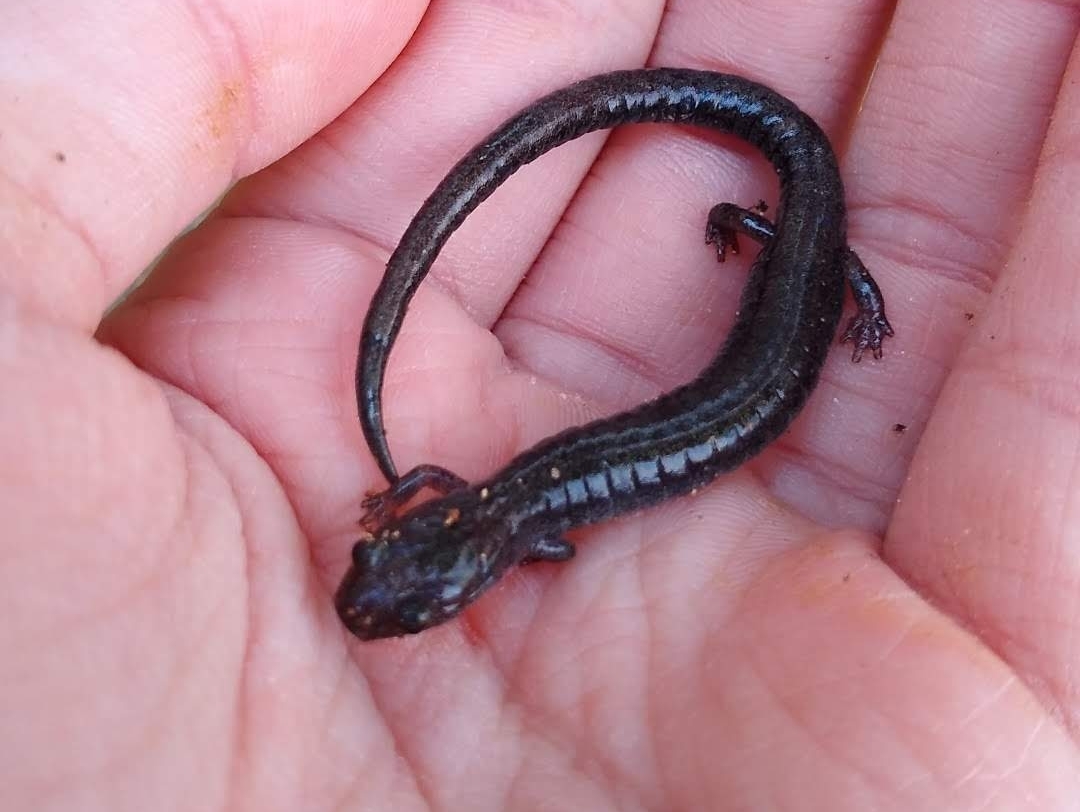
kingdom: Animalia
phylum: Chordata
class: Amphibia
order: Caudata
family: Plethodontidae
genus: Plethodon
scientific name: Plethodon cinereus
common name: Redback salamander
